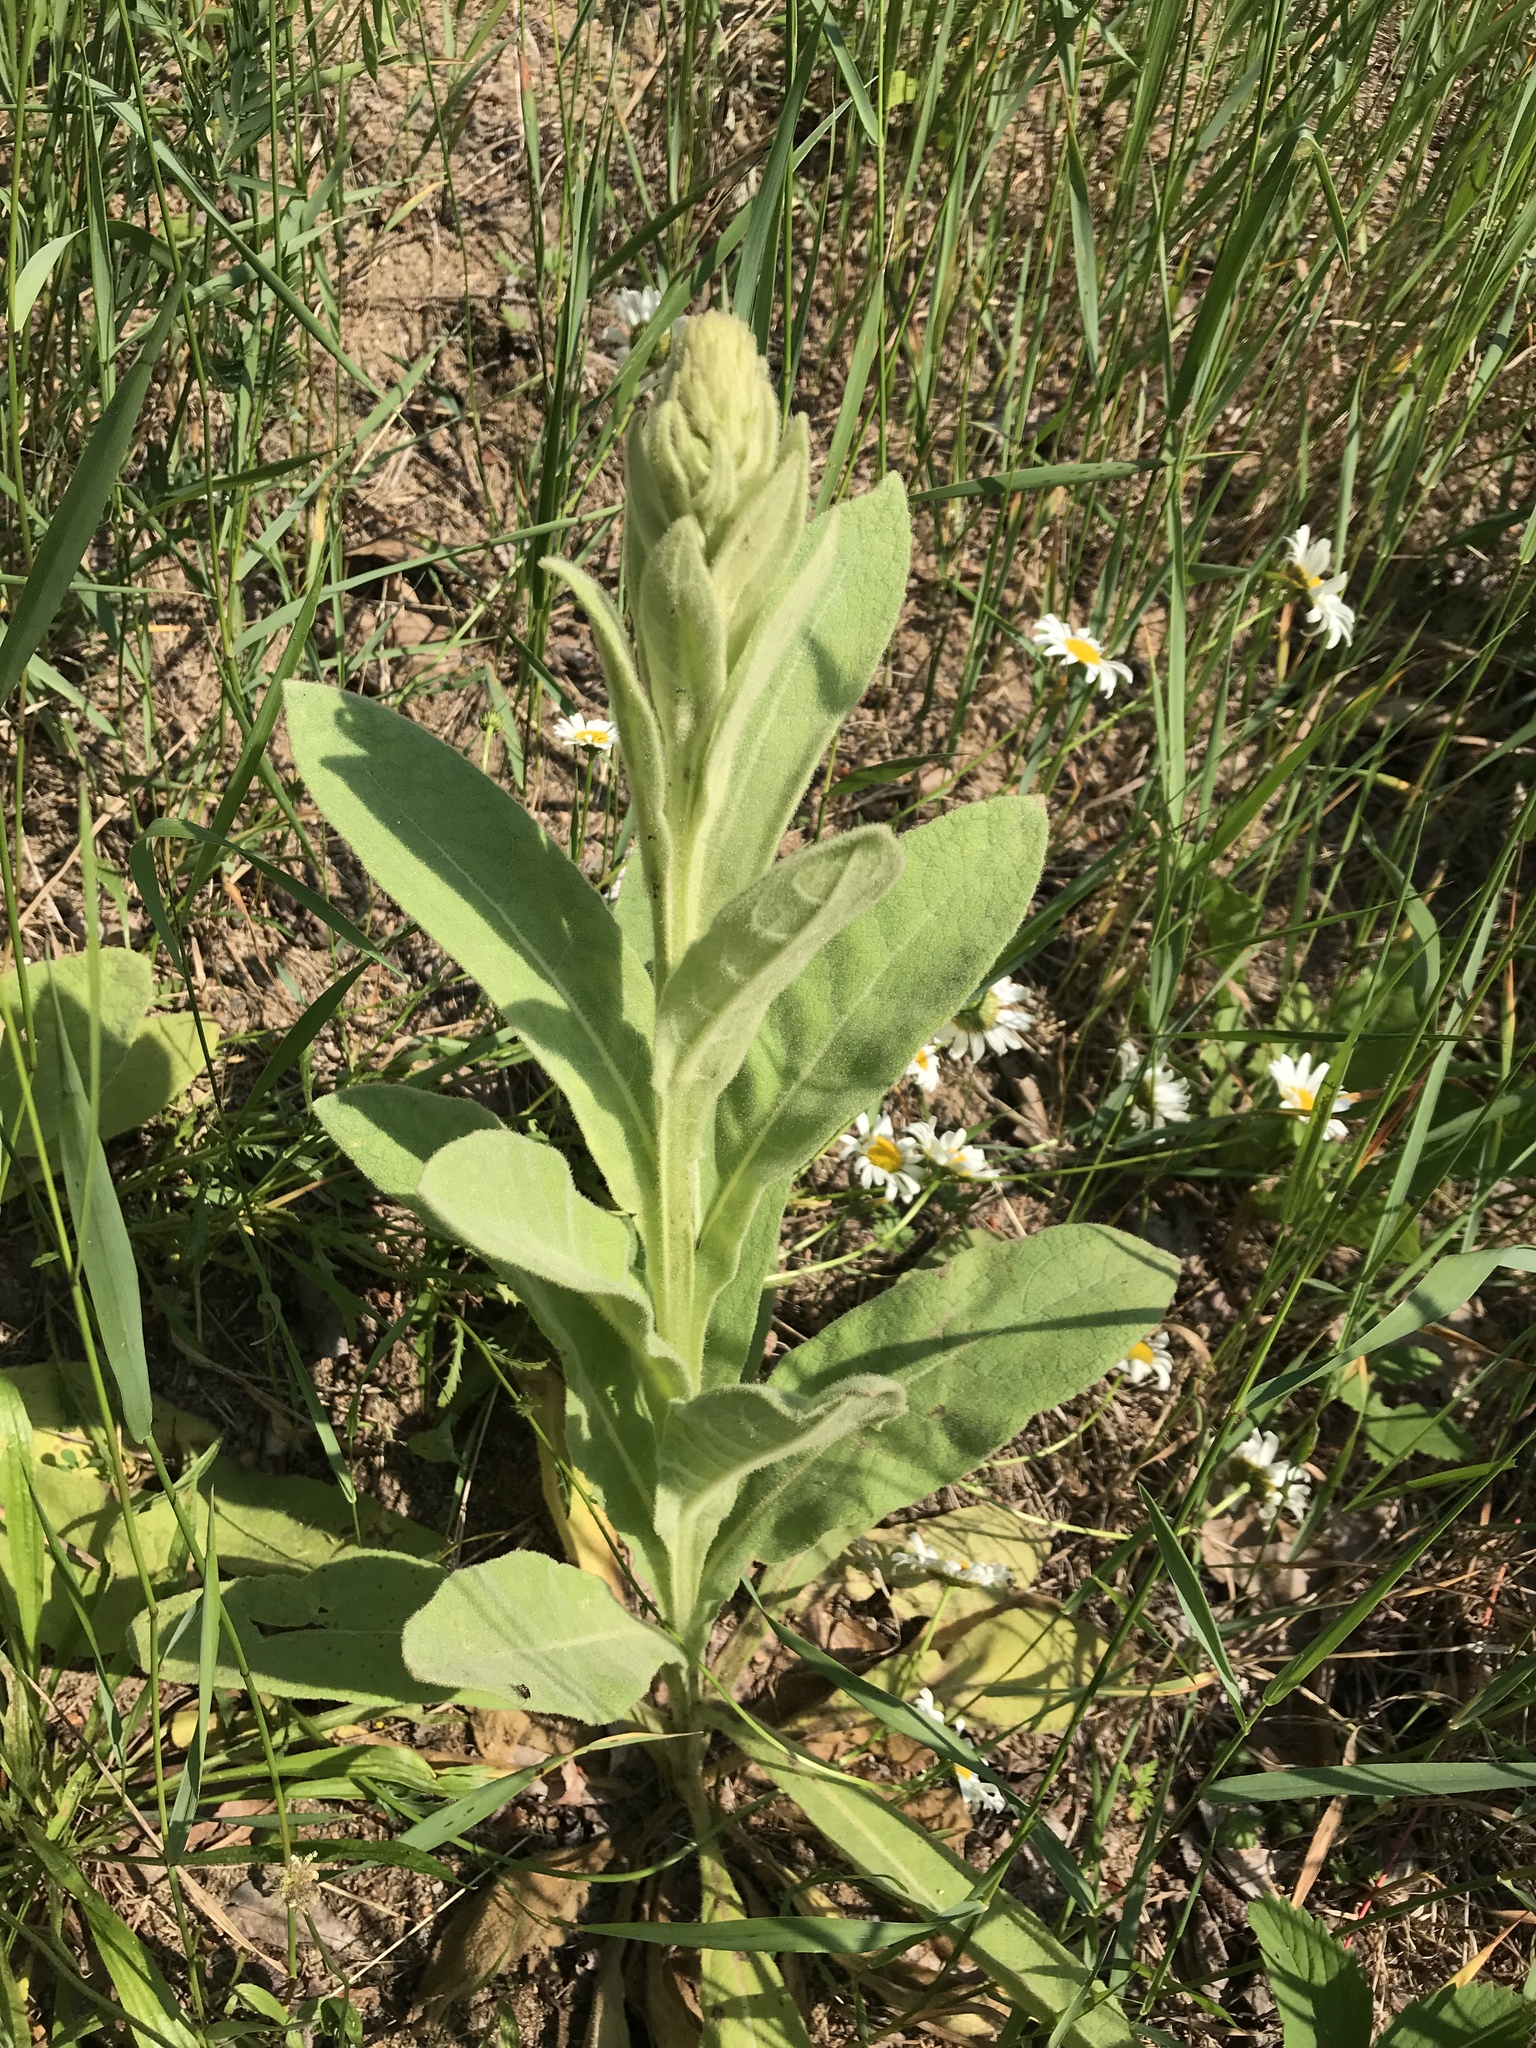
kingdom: Plantae
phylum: Tracheophyta
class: Magnoliopsida
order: Lamiales
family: Scrophulariaceae
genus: Verbascum
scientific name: Verbascum thapsus
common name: Common mullein
